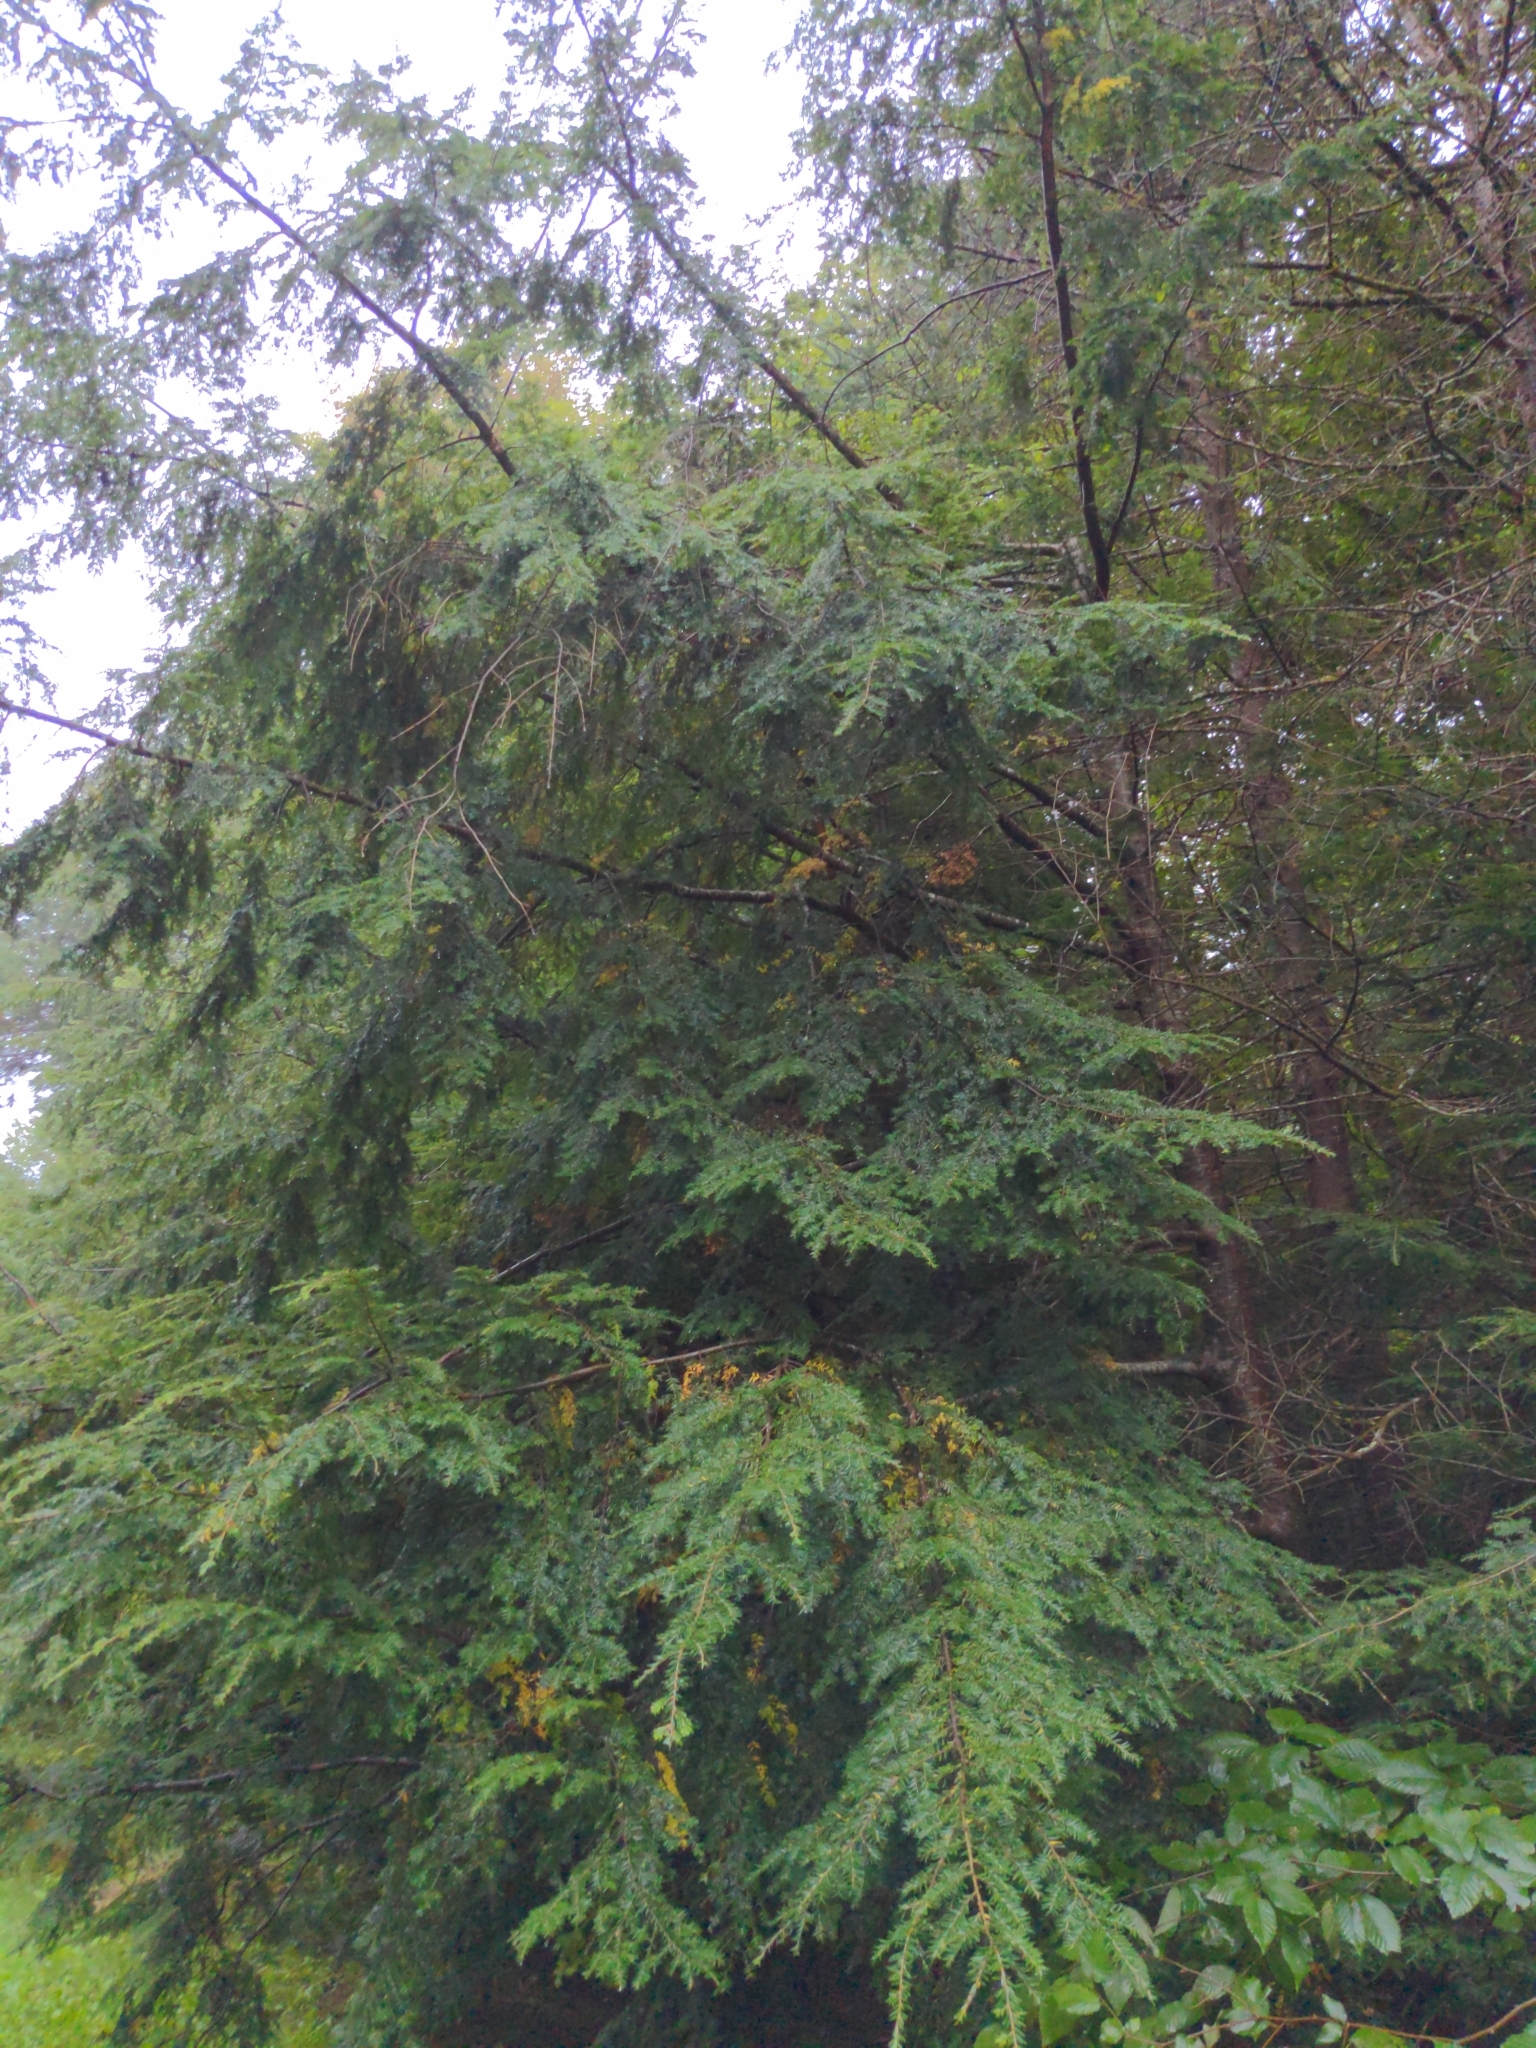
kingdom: Plantae
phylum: Tracheophyta
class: Pinopsida
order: Pinales
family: Pinaceae
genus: Tsuga
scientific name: Tsuga canadensis
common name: Eastern hemlock
